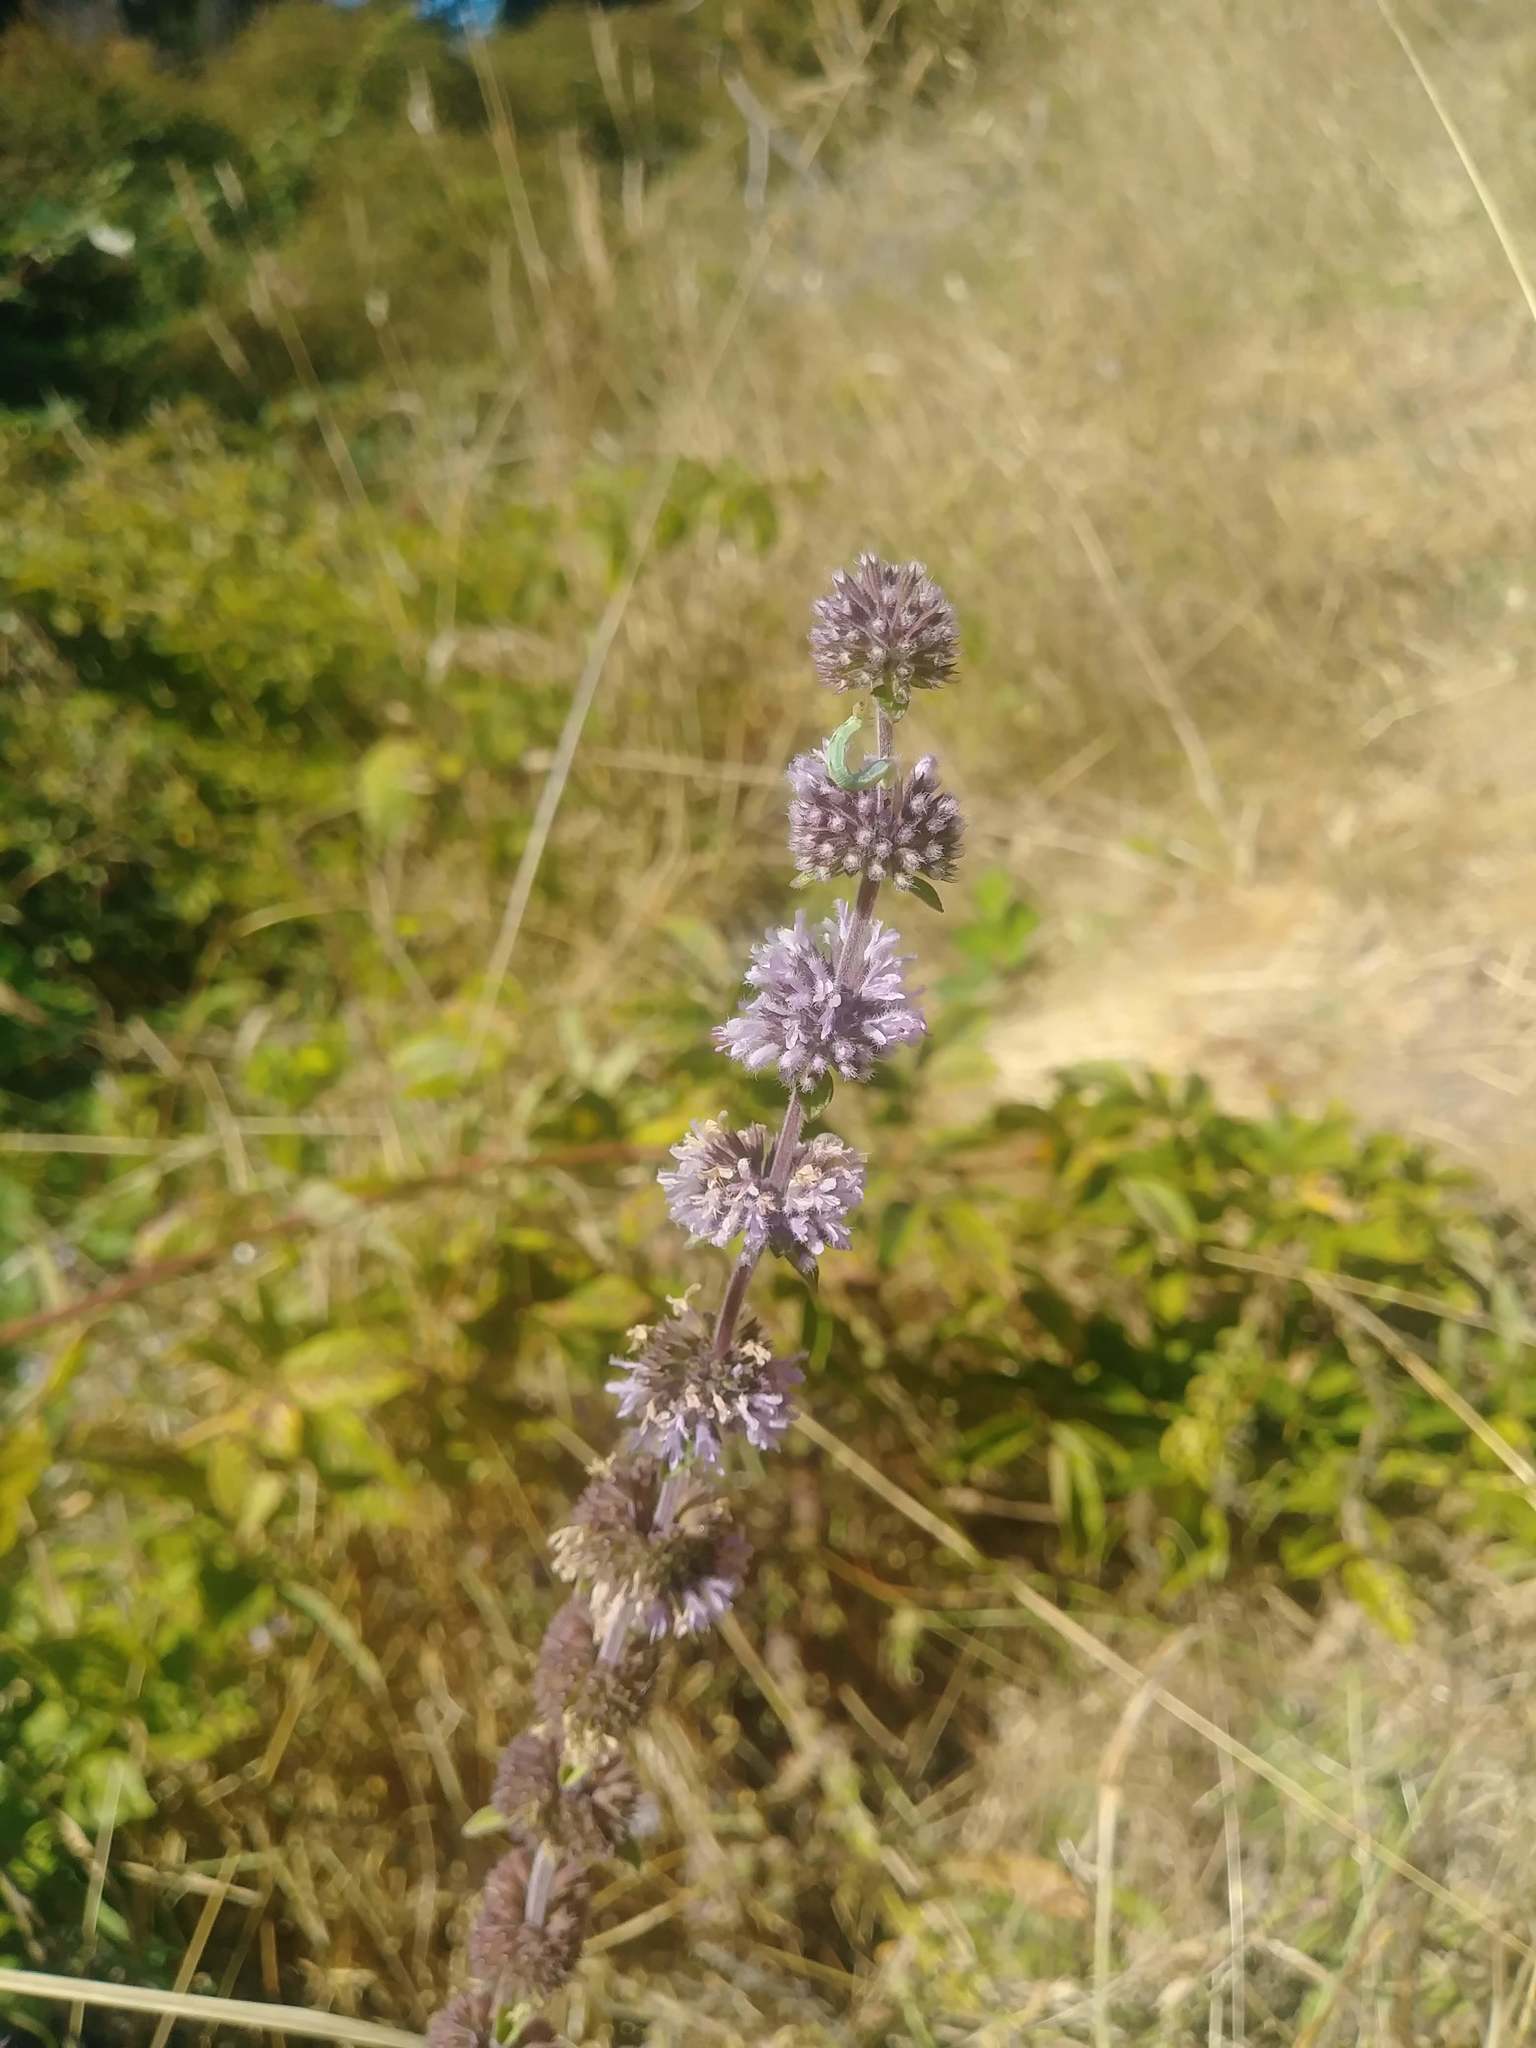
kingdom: Plantae
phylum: Tracheophyta
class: Magnoliopsida
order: Lamiales
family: Lamiaceae
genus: Mentha
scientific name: Mentha pulegium
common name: Pennyroyal
